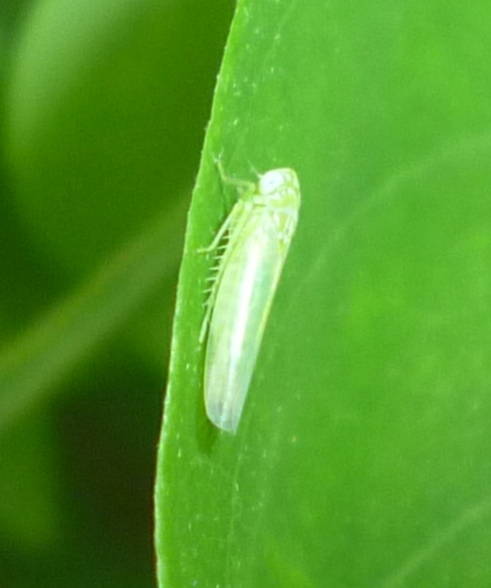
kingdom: Animalia
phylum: Arthropoda
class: Insecta
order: Hemiptera
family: Cicadellidae
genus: Empoasca
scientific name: Empoasca fabae
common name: Potato leafhopper
